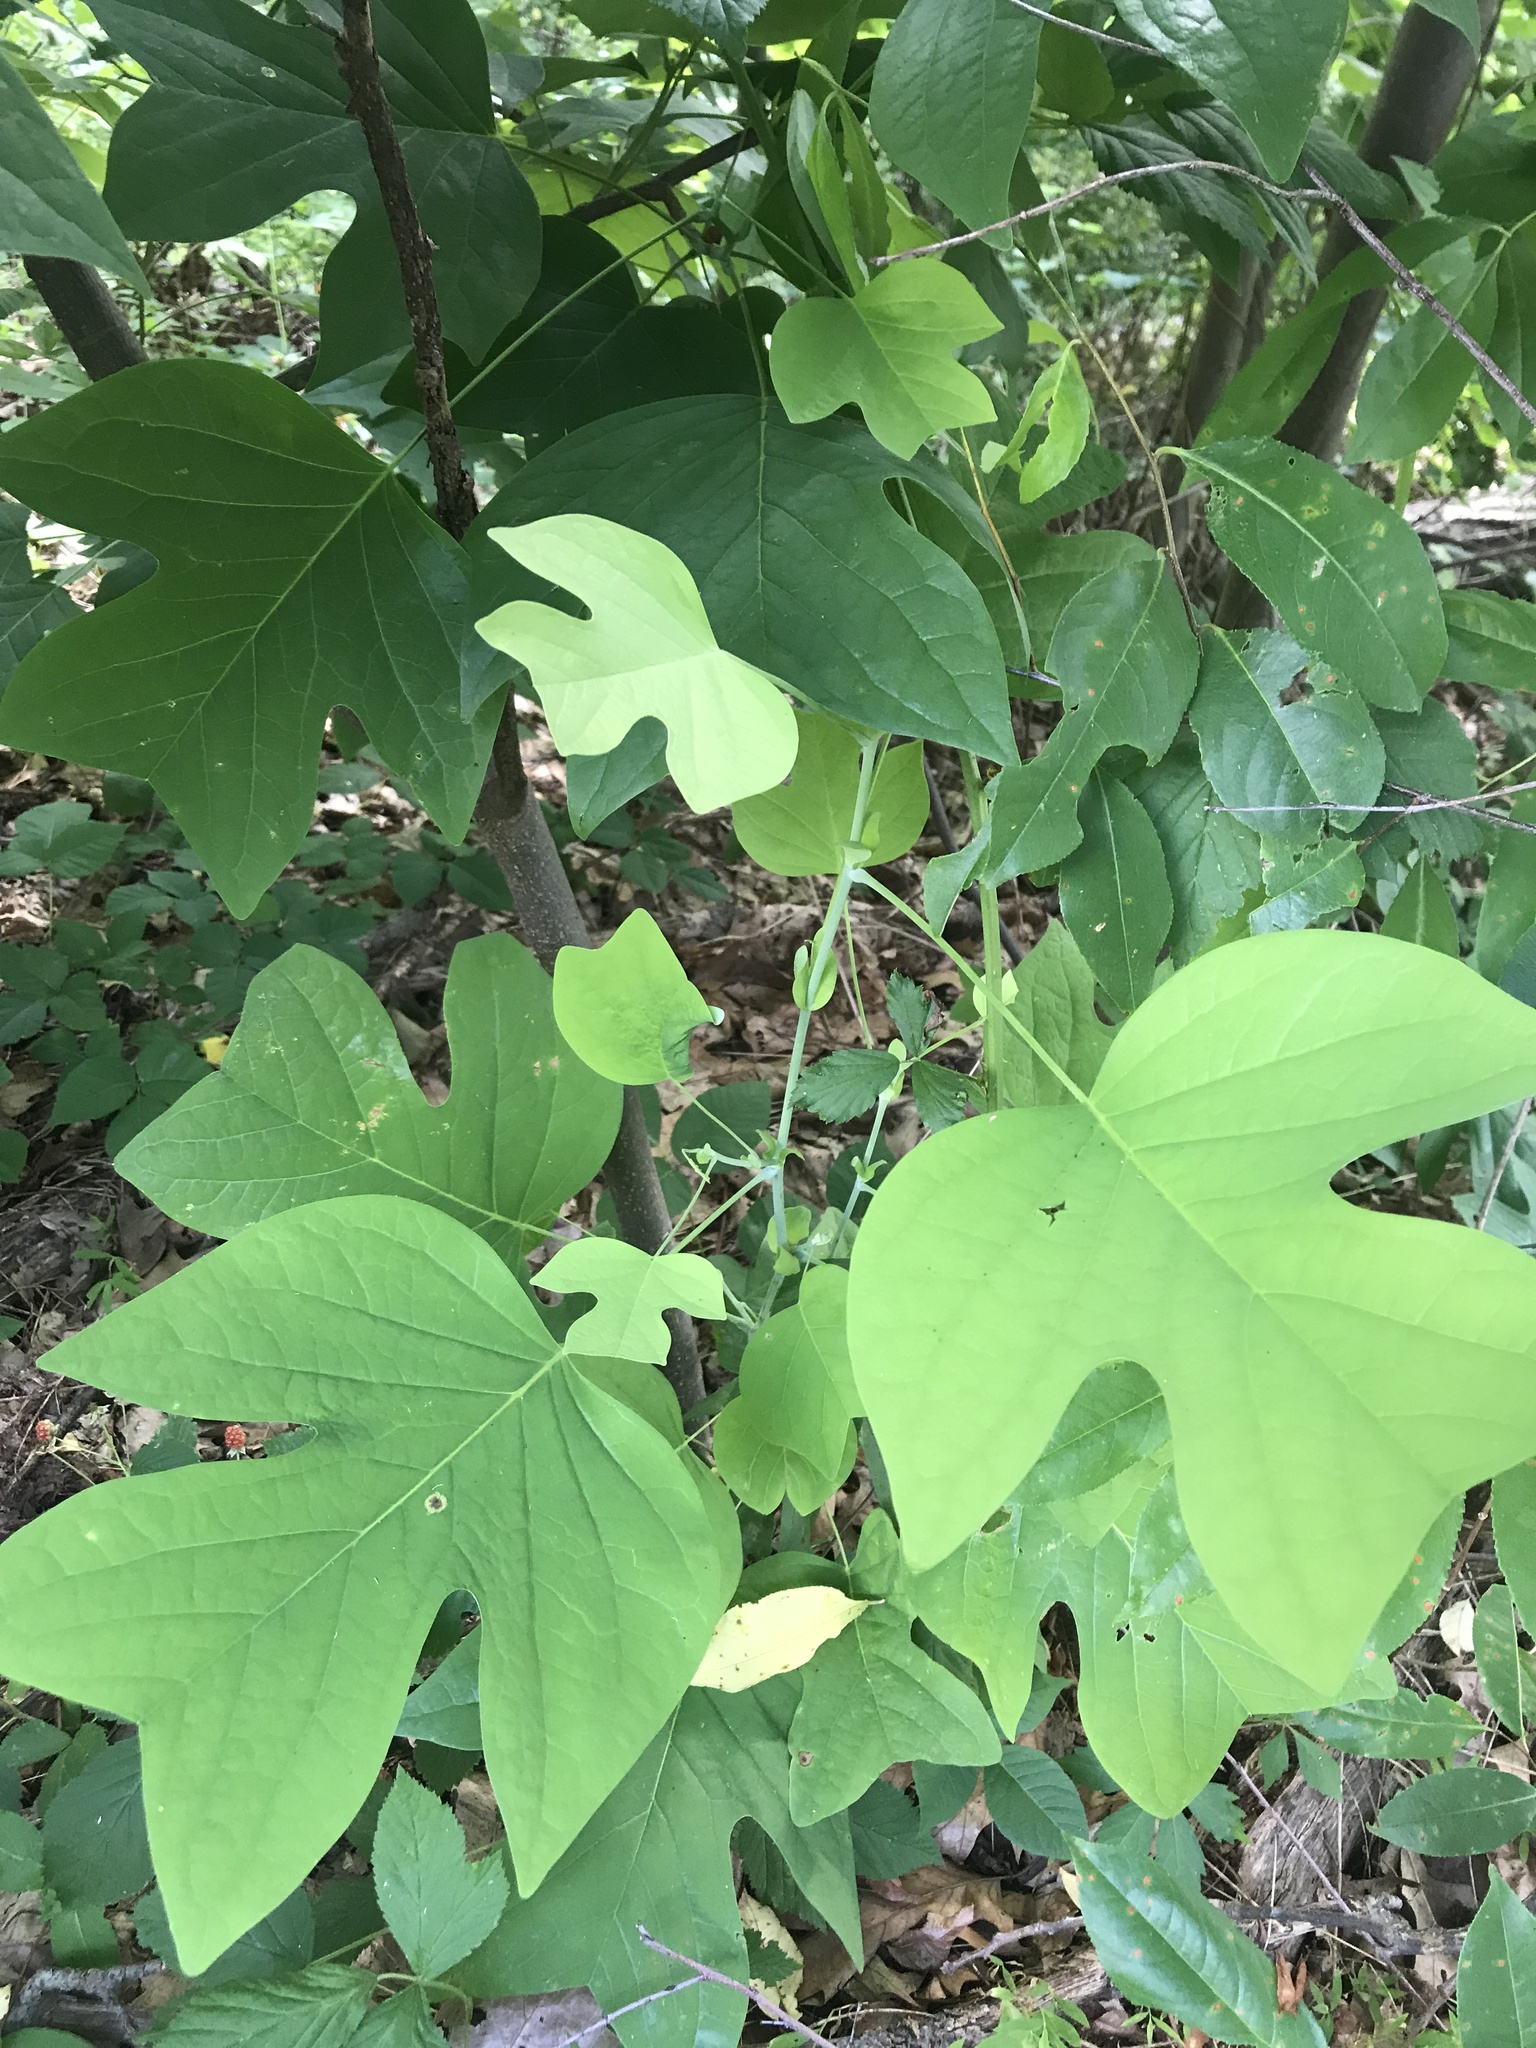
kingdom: Plantae
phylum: Tracheophyta
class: Magnoliopsida
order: Magnoliales
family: Magnoliaceae
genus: Liriodendron
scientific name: Liriodendron tulipifera
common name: Tulip tree
